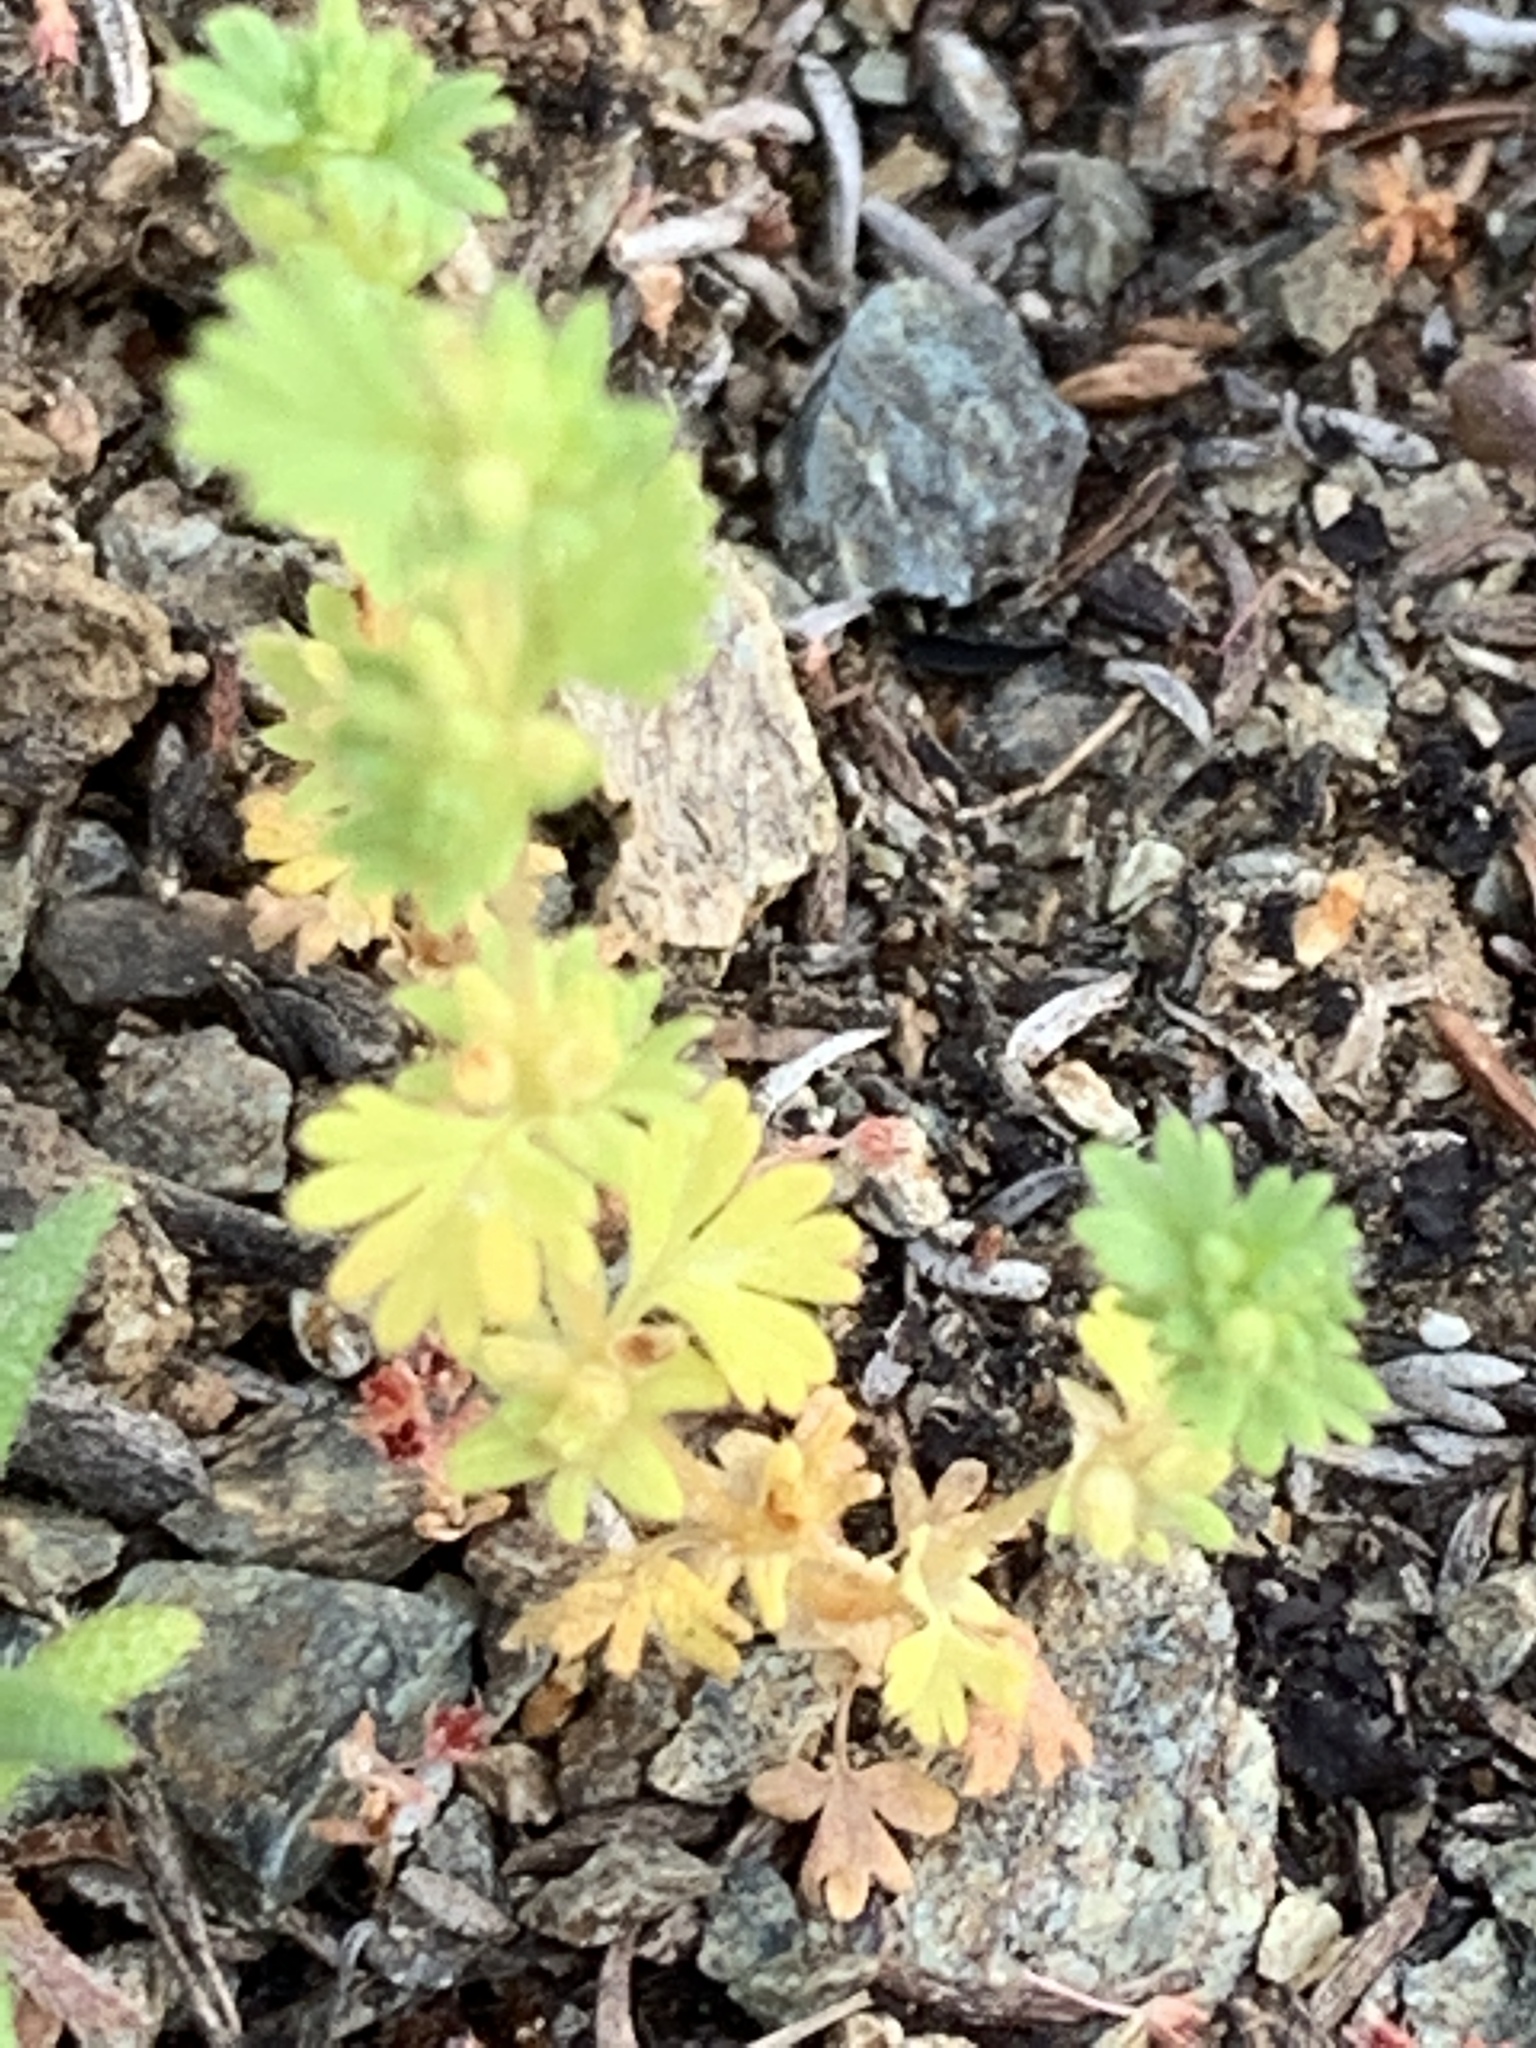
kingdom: Plantae
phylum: Tracheophyta
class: Magnoliopsida
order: Rosales
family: Rosaceae
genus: Aphanes
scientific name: Aphanes arvensis
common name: Parsley-piert
